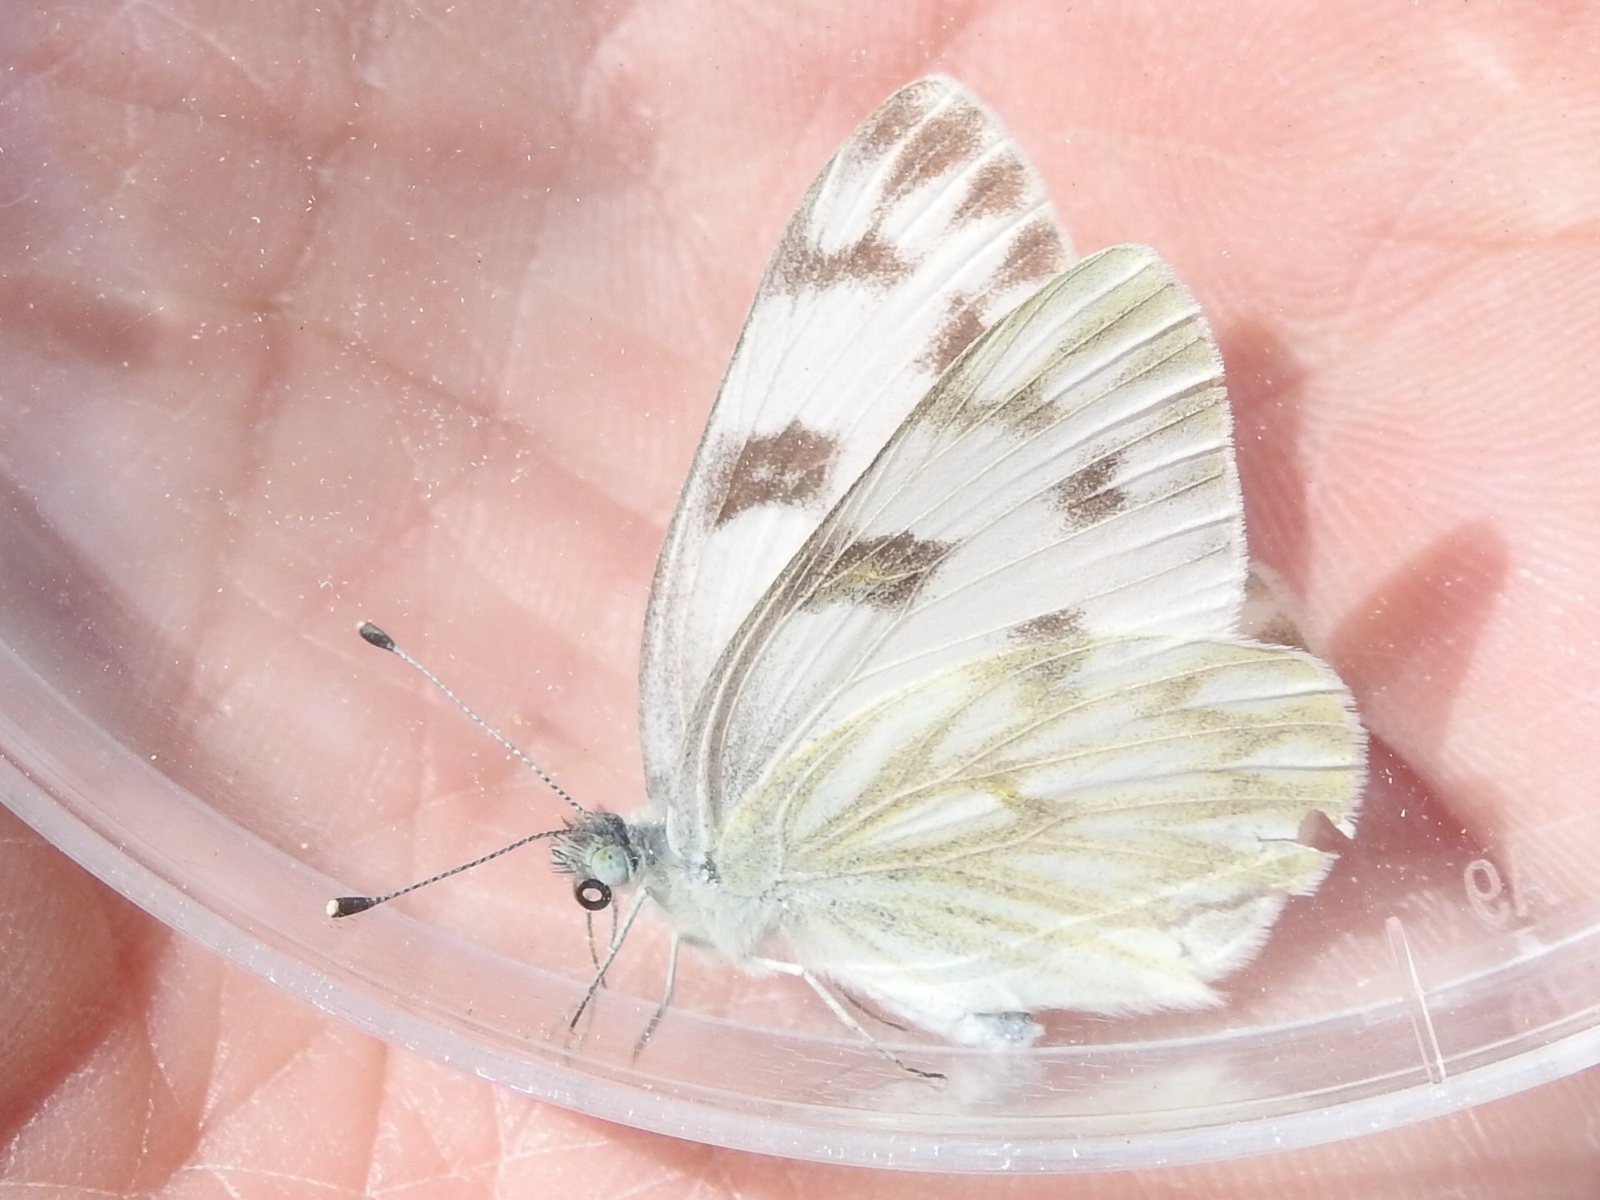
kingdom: Animalia
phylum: Arthropoda
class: Insecta
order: Lepidoptera
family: Pieridae
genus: Pontia
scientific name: Pontia protodice
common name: Checkered white
